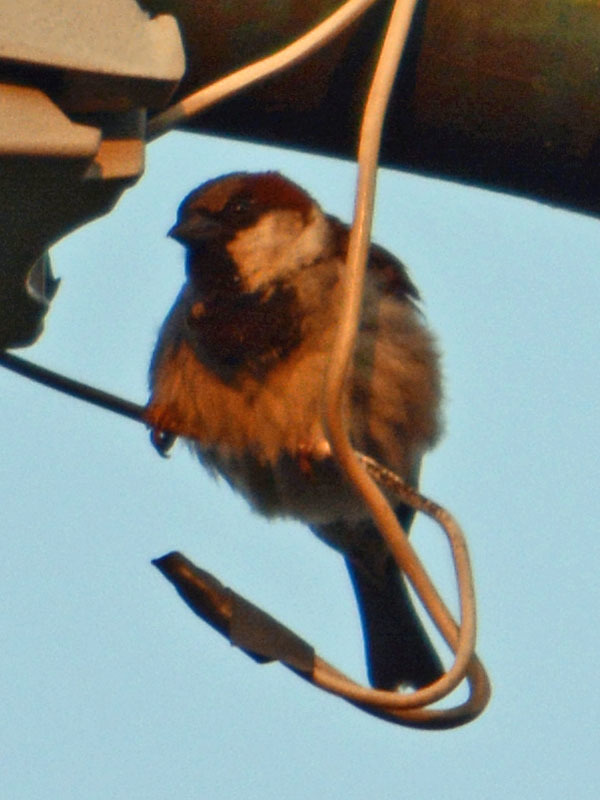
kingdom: Animalia
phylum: Chordata
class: Aves
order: Passeriformes
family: Passeridae
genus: Passer
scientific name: Passer domesticus
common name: House sparrow
